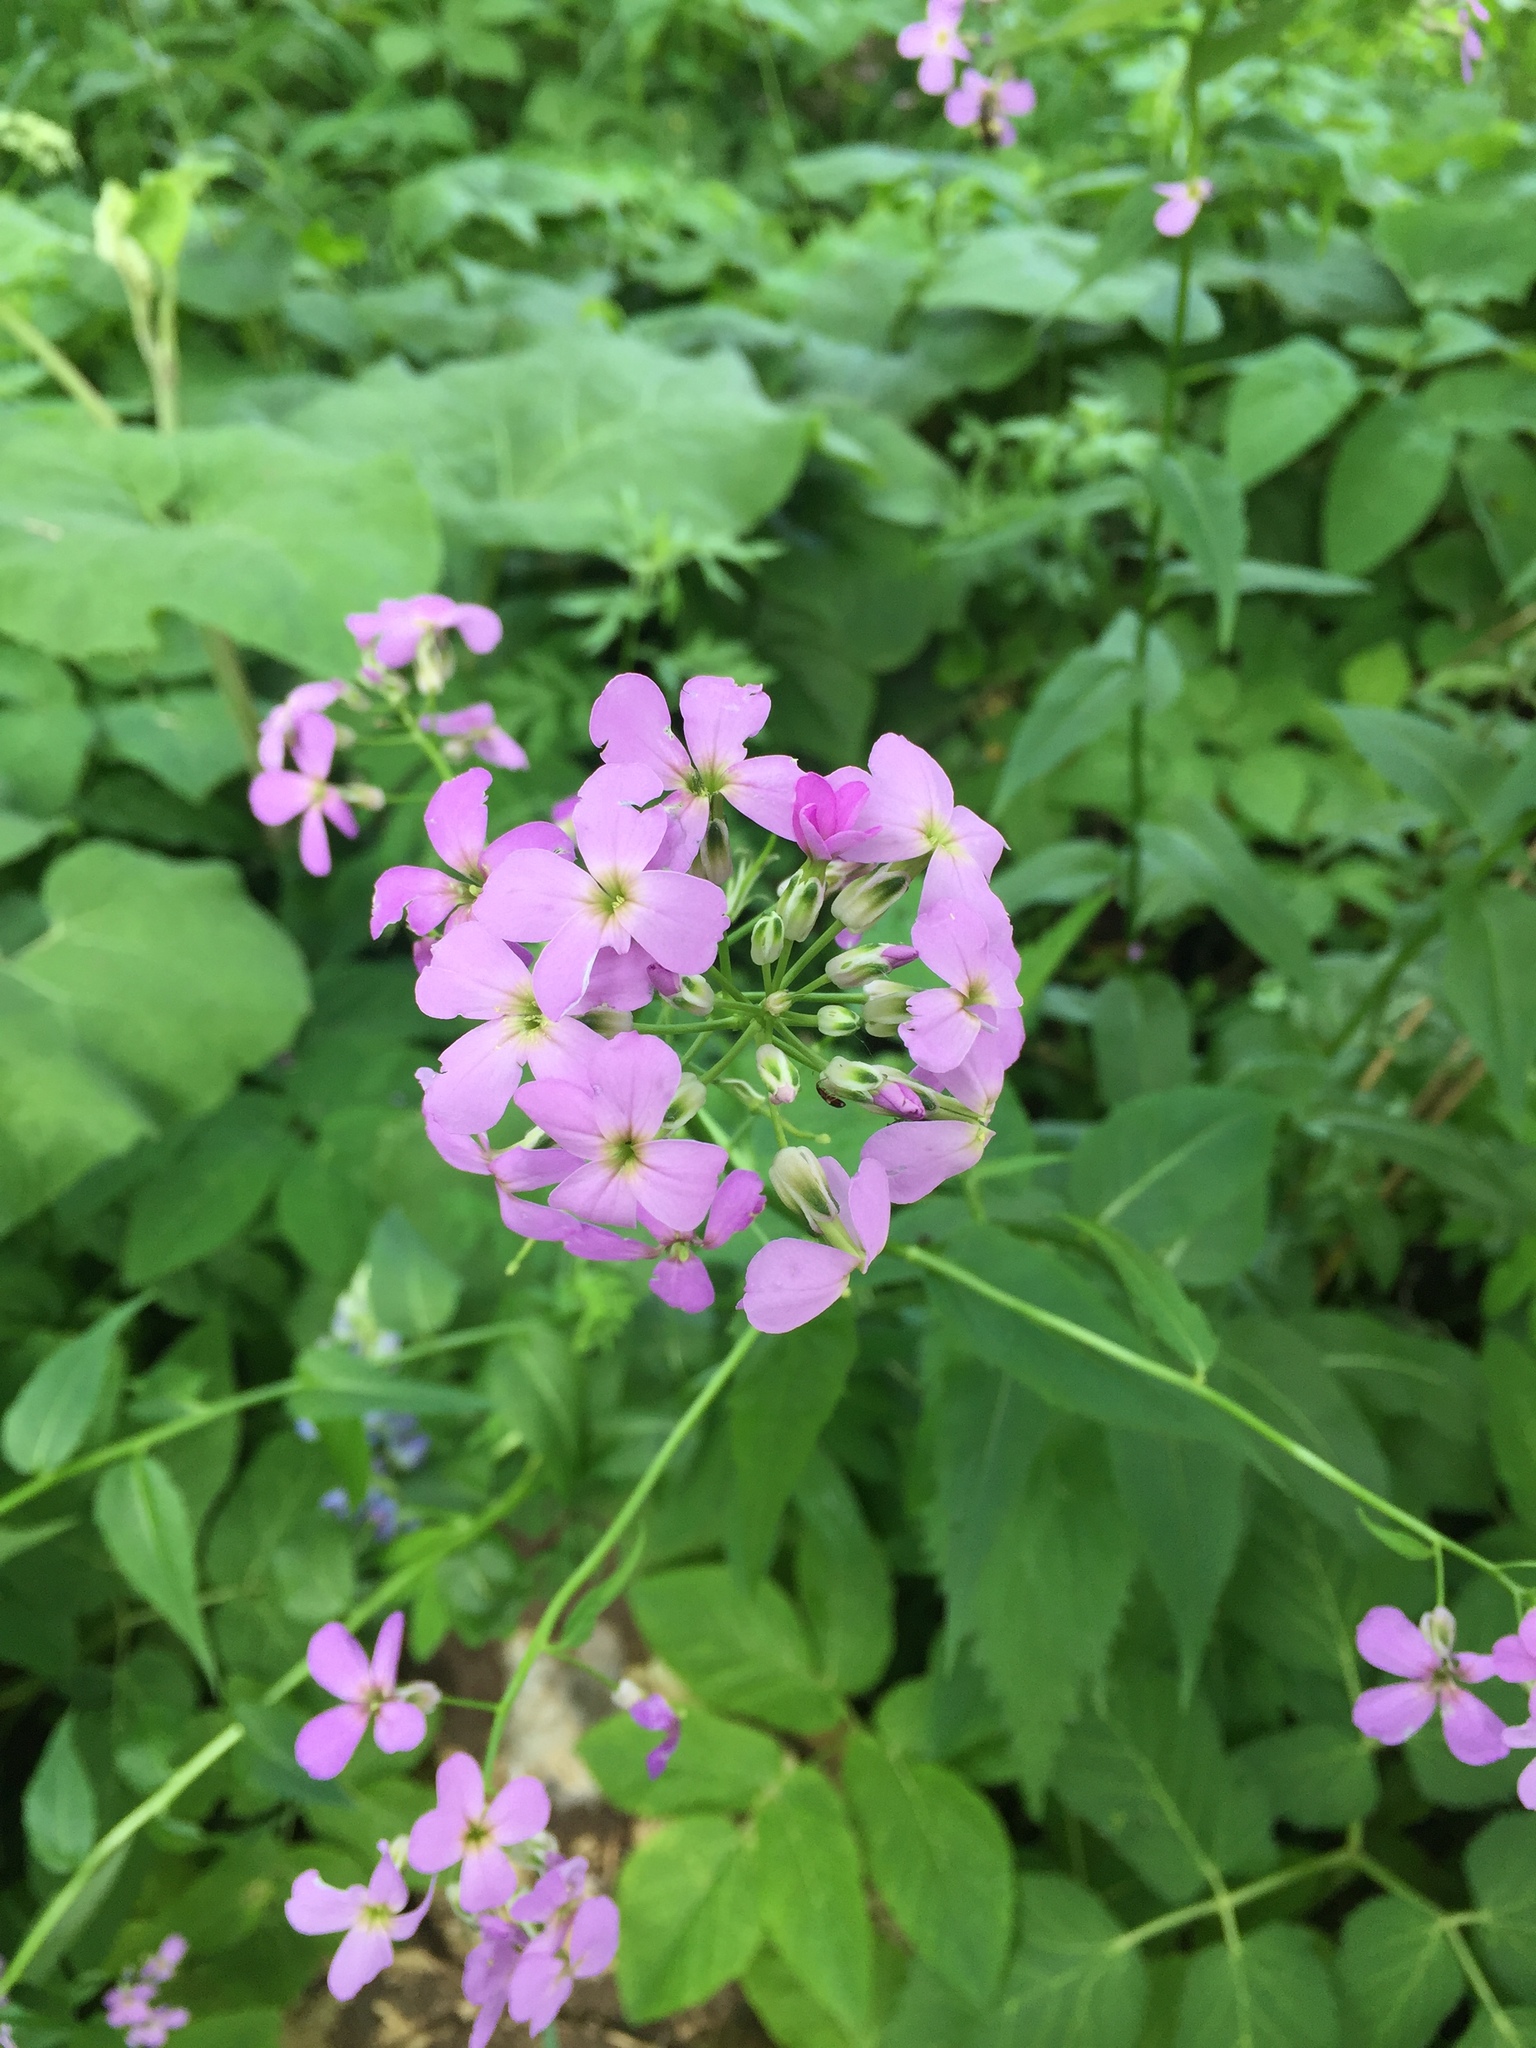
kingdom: Plantae
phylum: Tracheophyta
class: Magnoliopsida
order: Brassicales
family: Brassicaceae
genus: Hesperis
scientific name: Hesperis matronalis
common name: Dame's-violet
